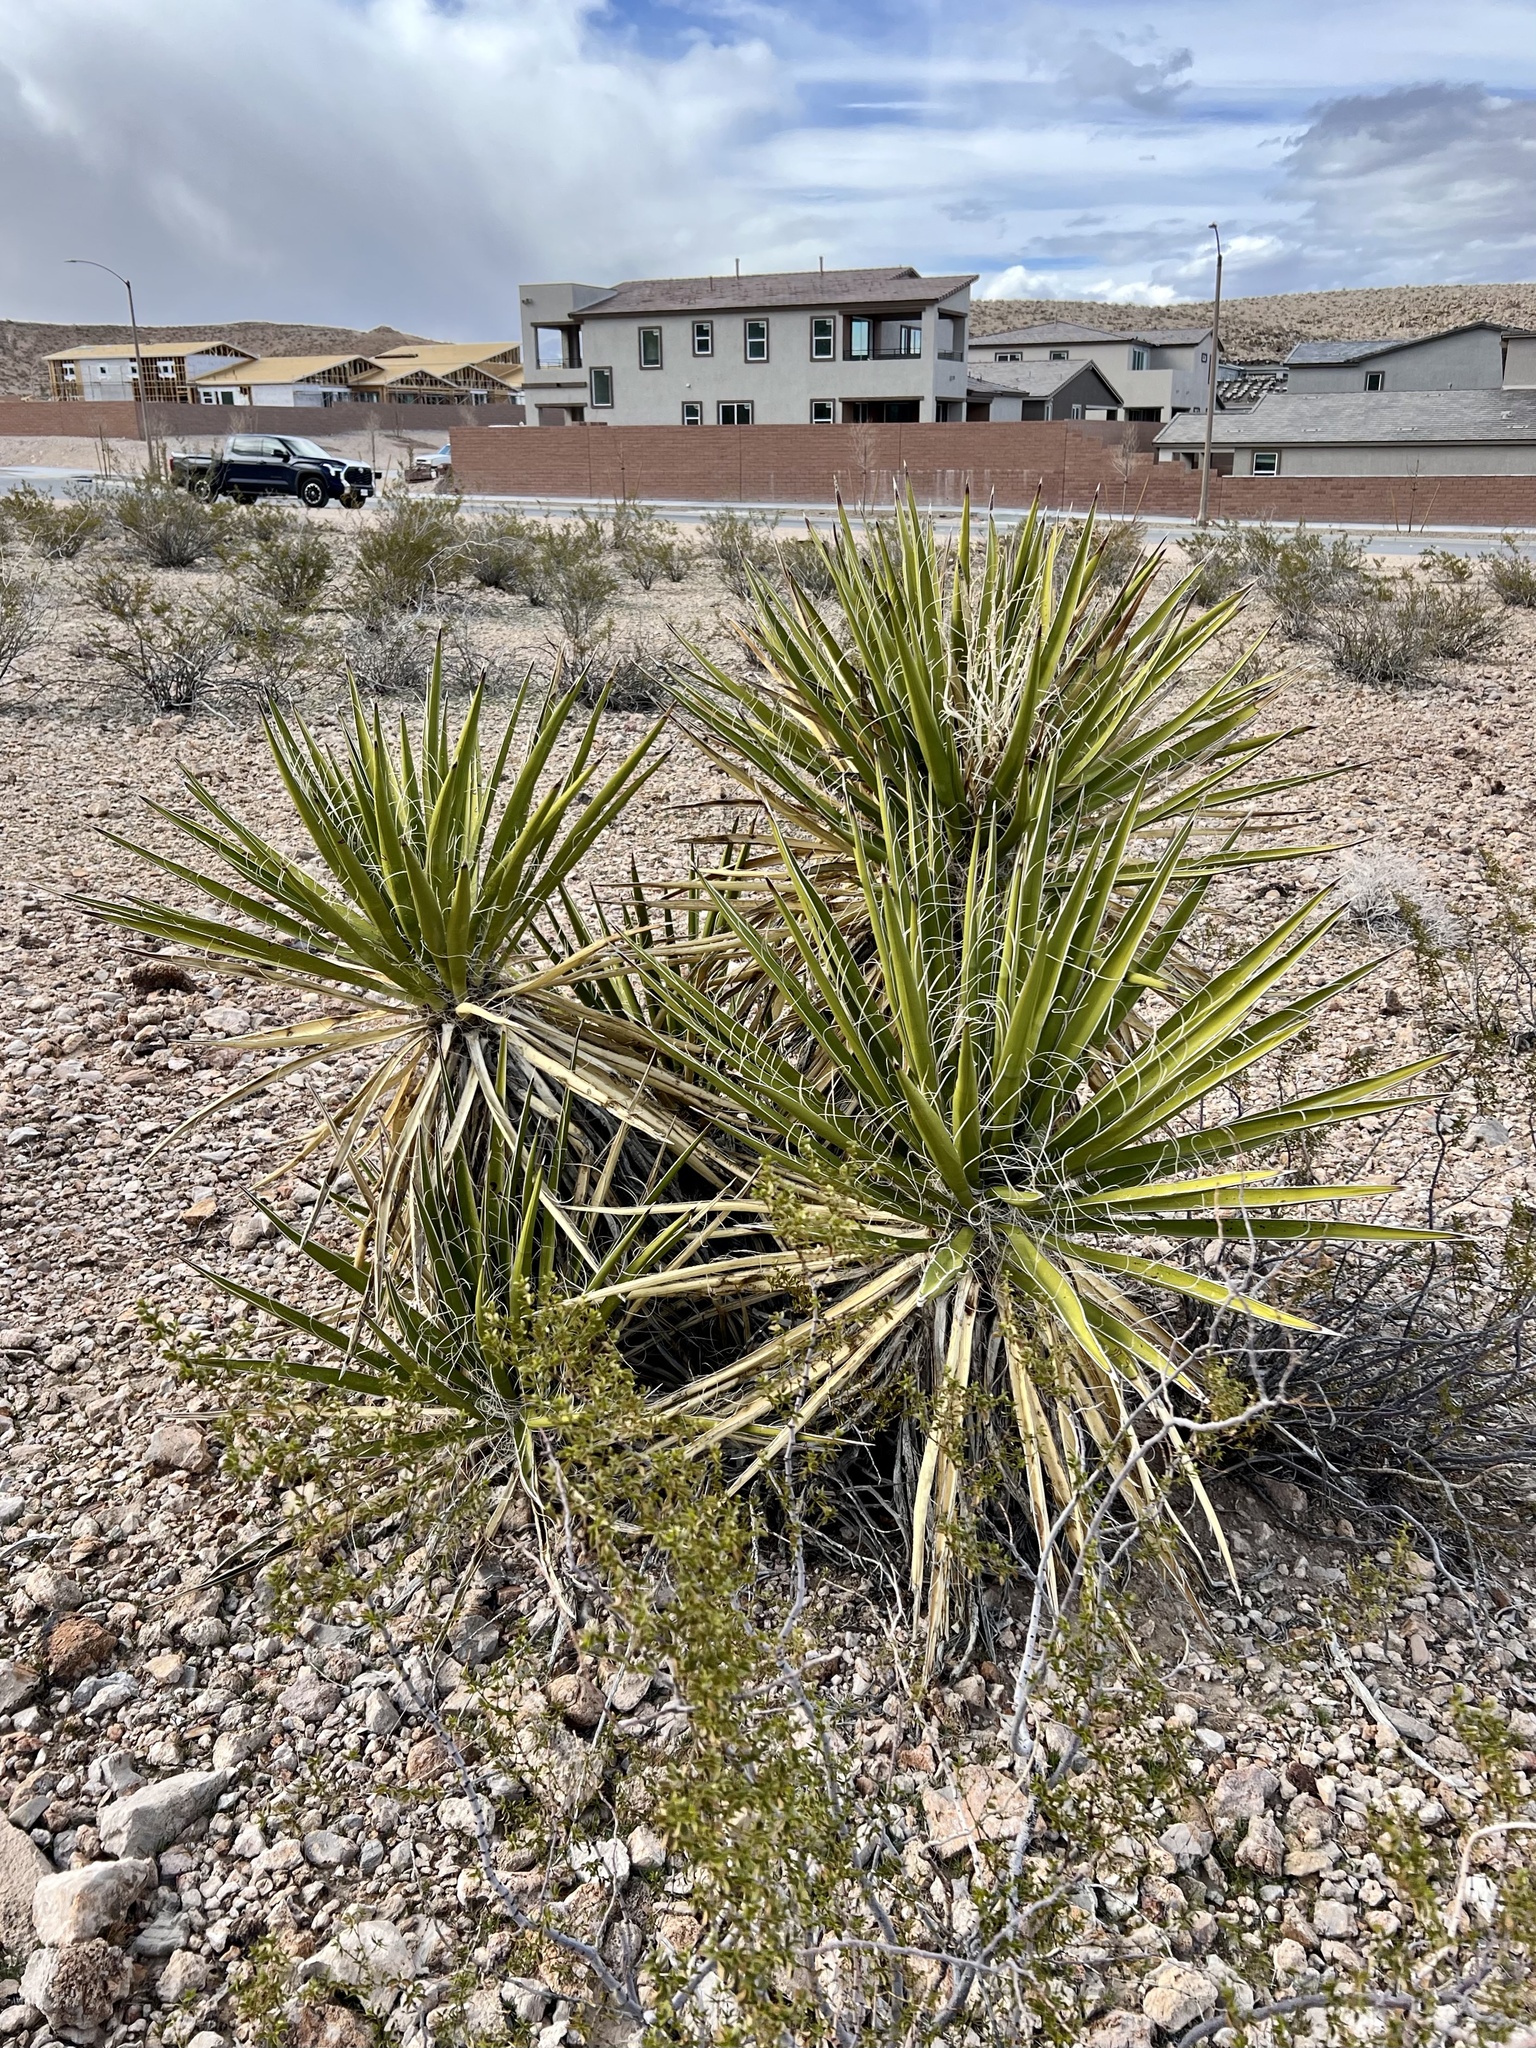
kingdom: Plantae
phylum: Tracheophyta
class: Liliopsida
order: Asparagales
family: Asparagaceae
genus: Yucca
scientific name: Yucca schidigera
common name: Mojave yucca
